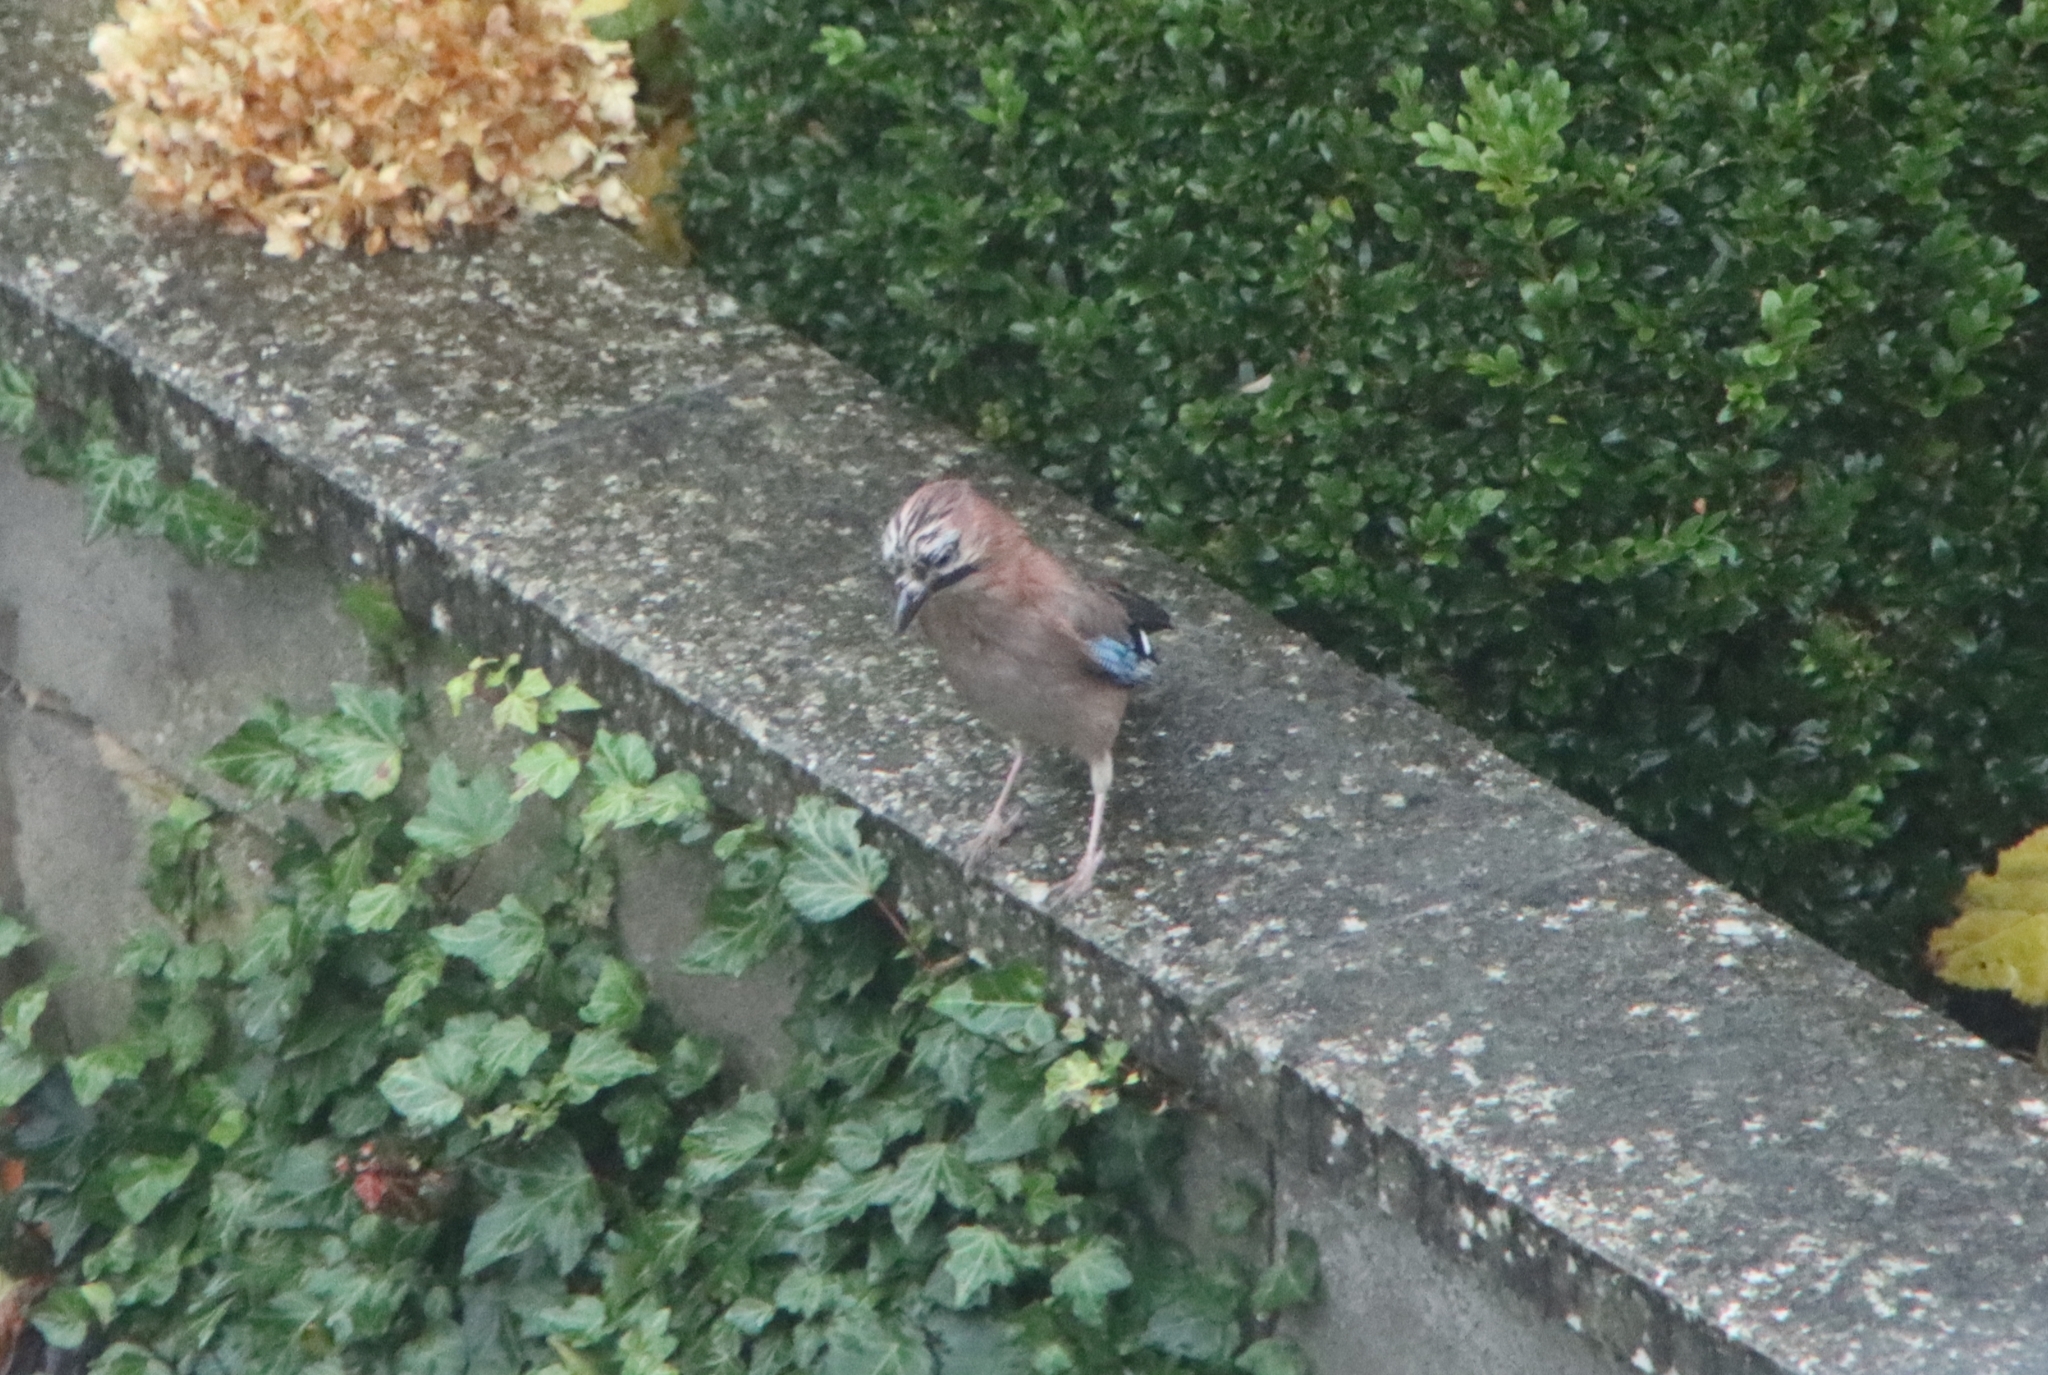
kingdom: Animalia
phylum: Chordata
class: Aves
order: Passeriformes
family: Corvidae
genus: Garrulus
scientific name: Garrulus glandarius
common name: Eurasian jay
